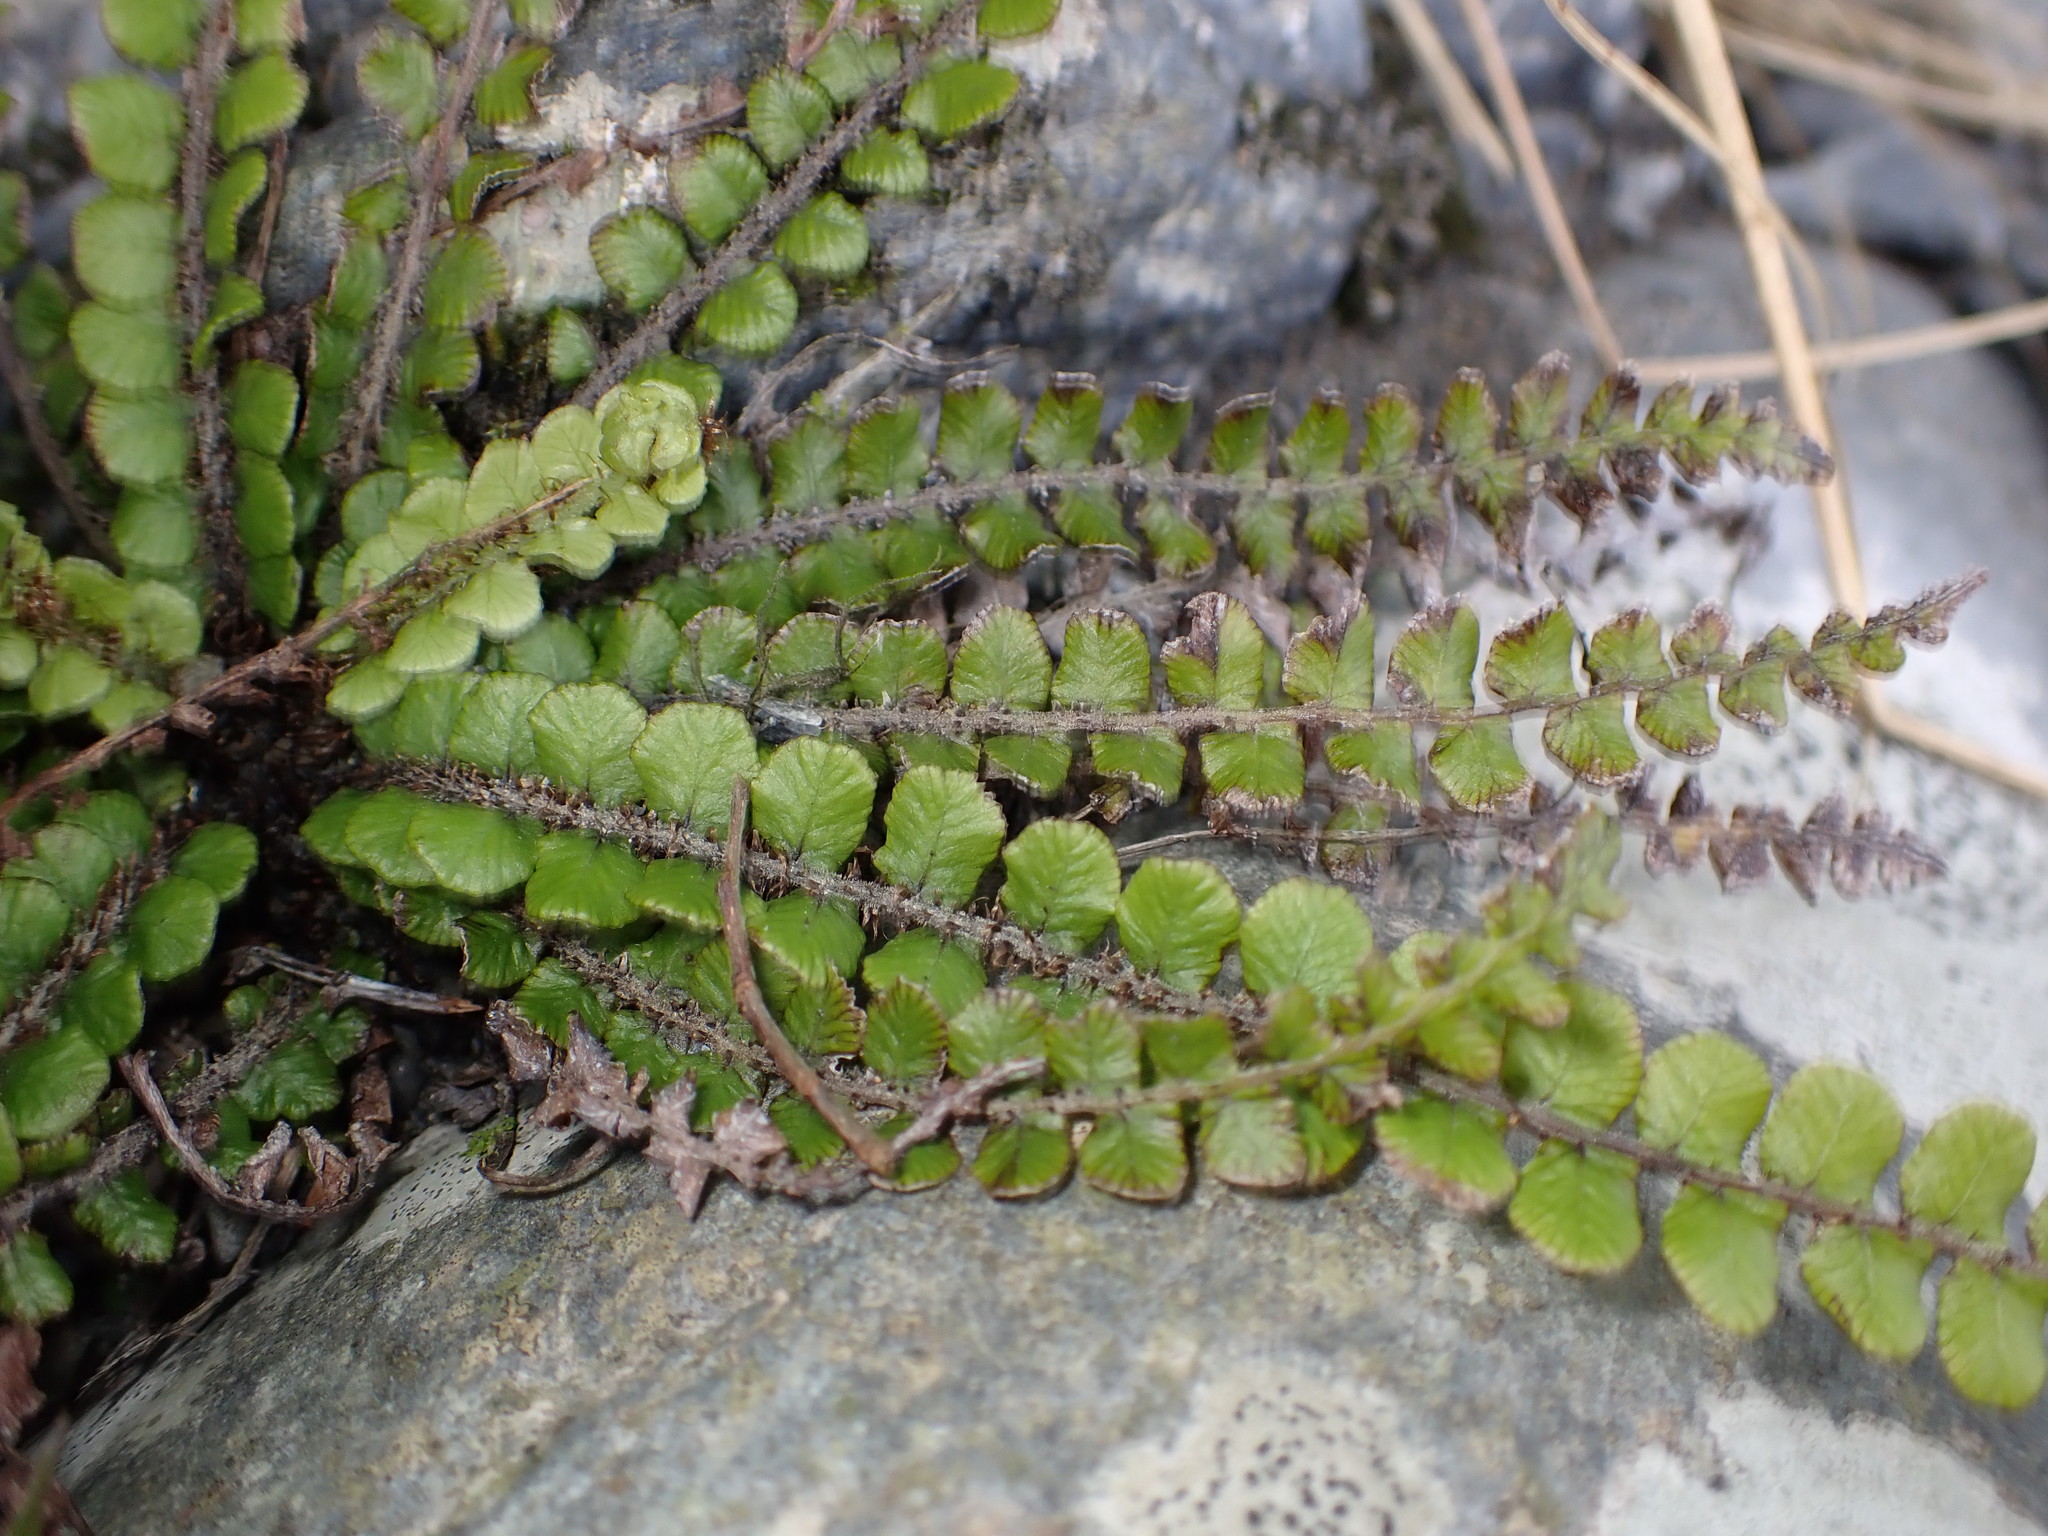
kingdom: Plantae
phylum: Tracheophyta
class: Polypodiopsida
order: Polypodiales
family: Blechnaceae
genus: Cranfillia
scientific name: Cranfillia fluviatilis
